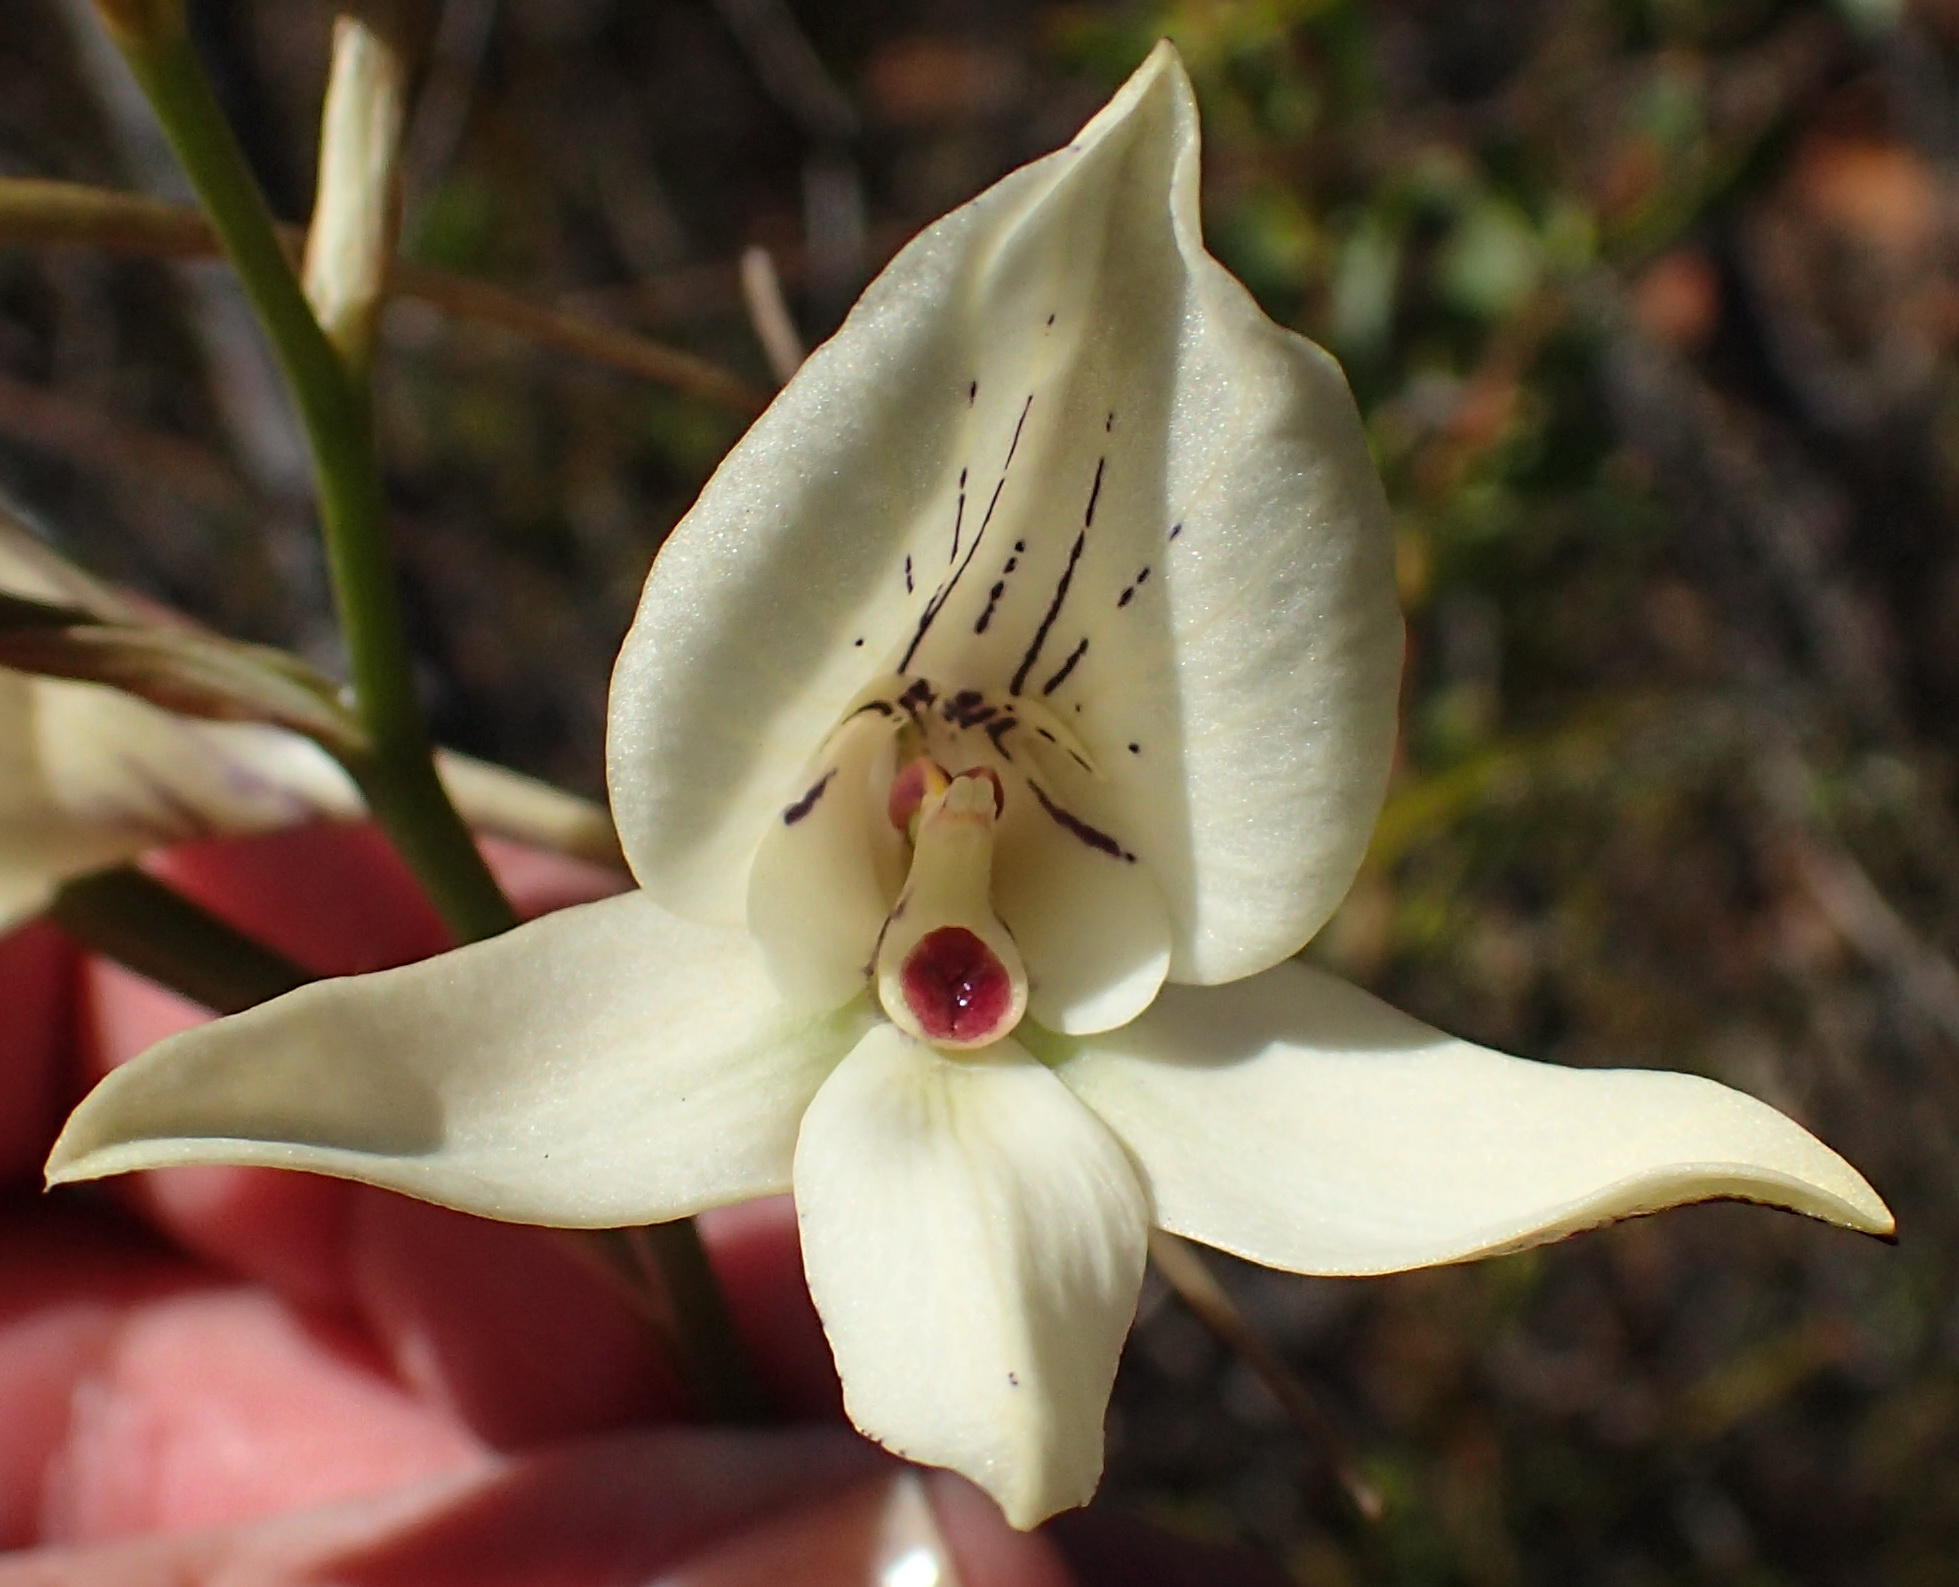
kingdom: Plantae
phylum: Tracheophyta
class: Liliopsida
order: Asparagales
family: Orchidaceae
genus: Disa
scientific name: Disa schlechteriana
